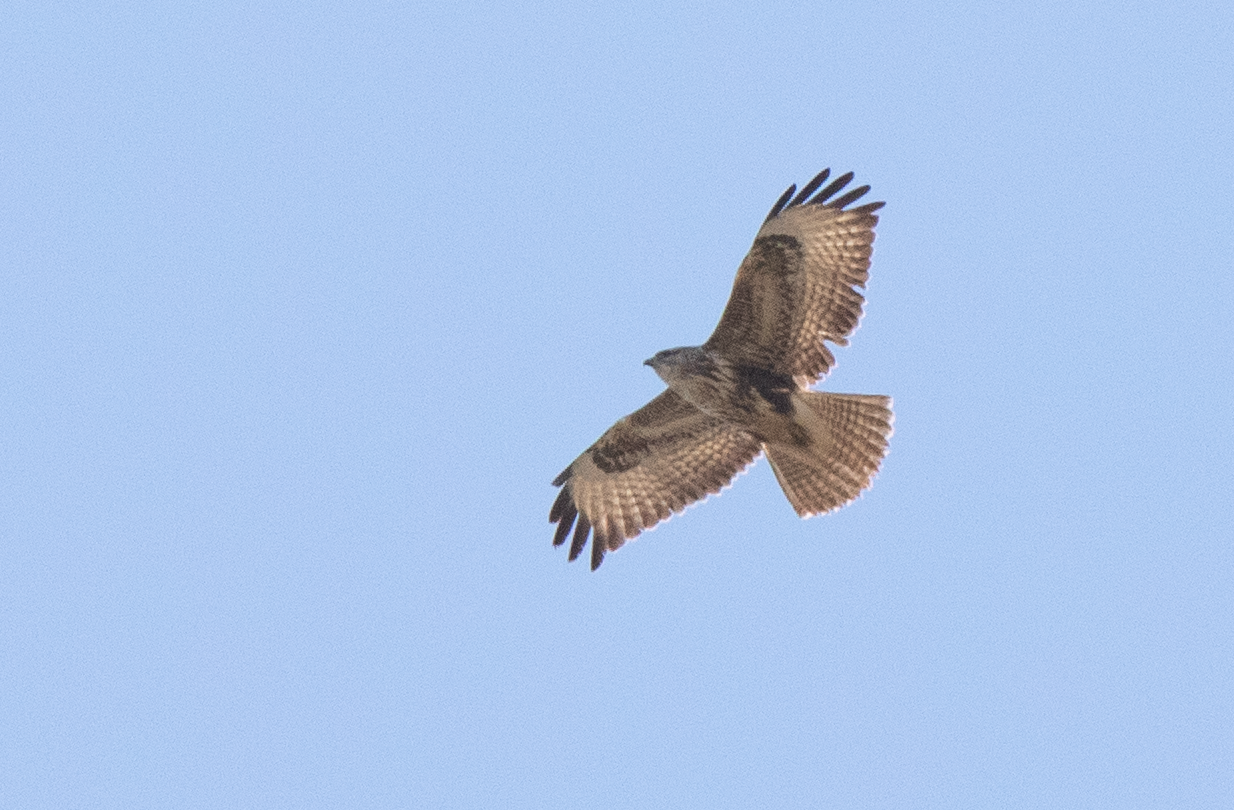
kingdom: Animalia
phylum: Chordata
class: Aves
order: Accipitriformes
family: Accipitridae
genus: Buteo
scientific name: Buteo buteo
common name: Common buzzard
